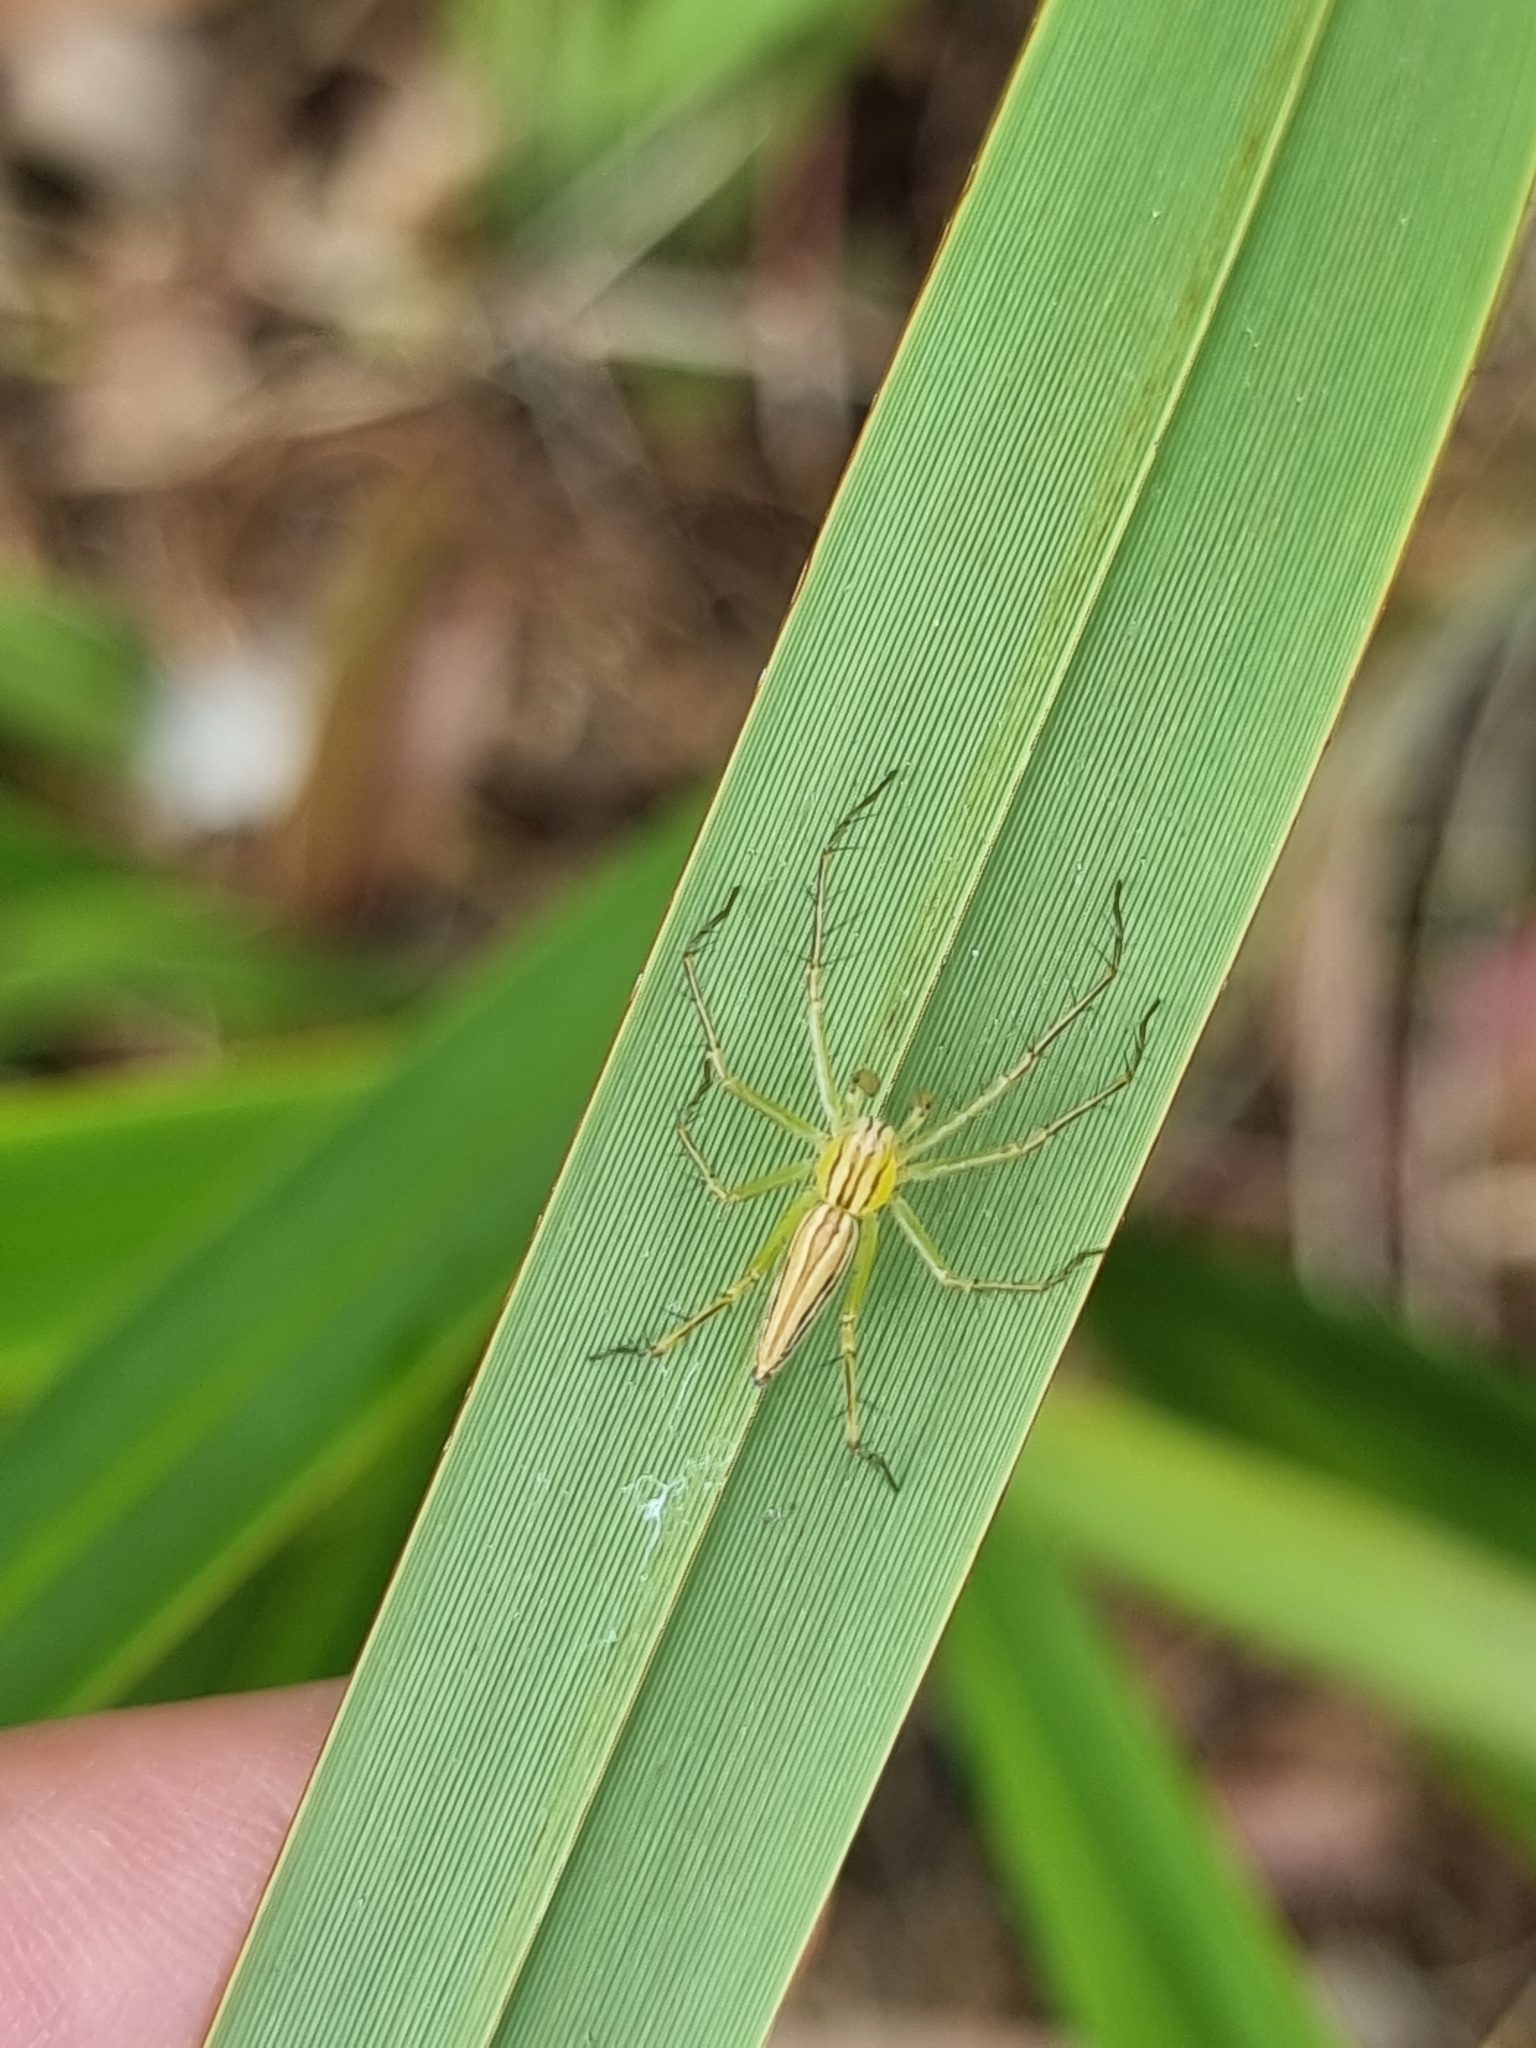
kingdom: Animalia
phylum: Arthropoda
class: Arachnida
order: Araneae
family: Oxyopidae
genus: Oxyopes
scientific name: Oxyopes macilentus
